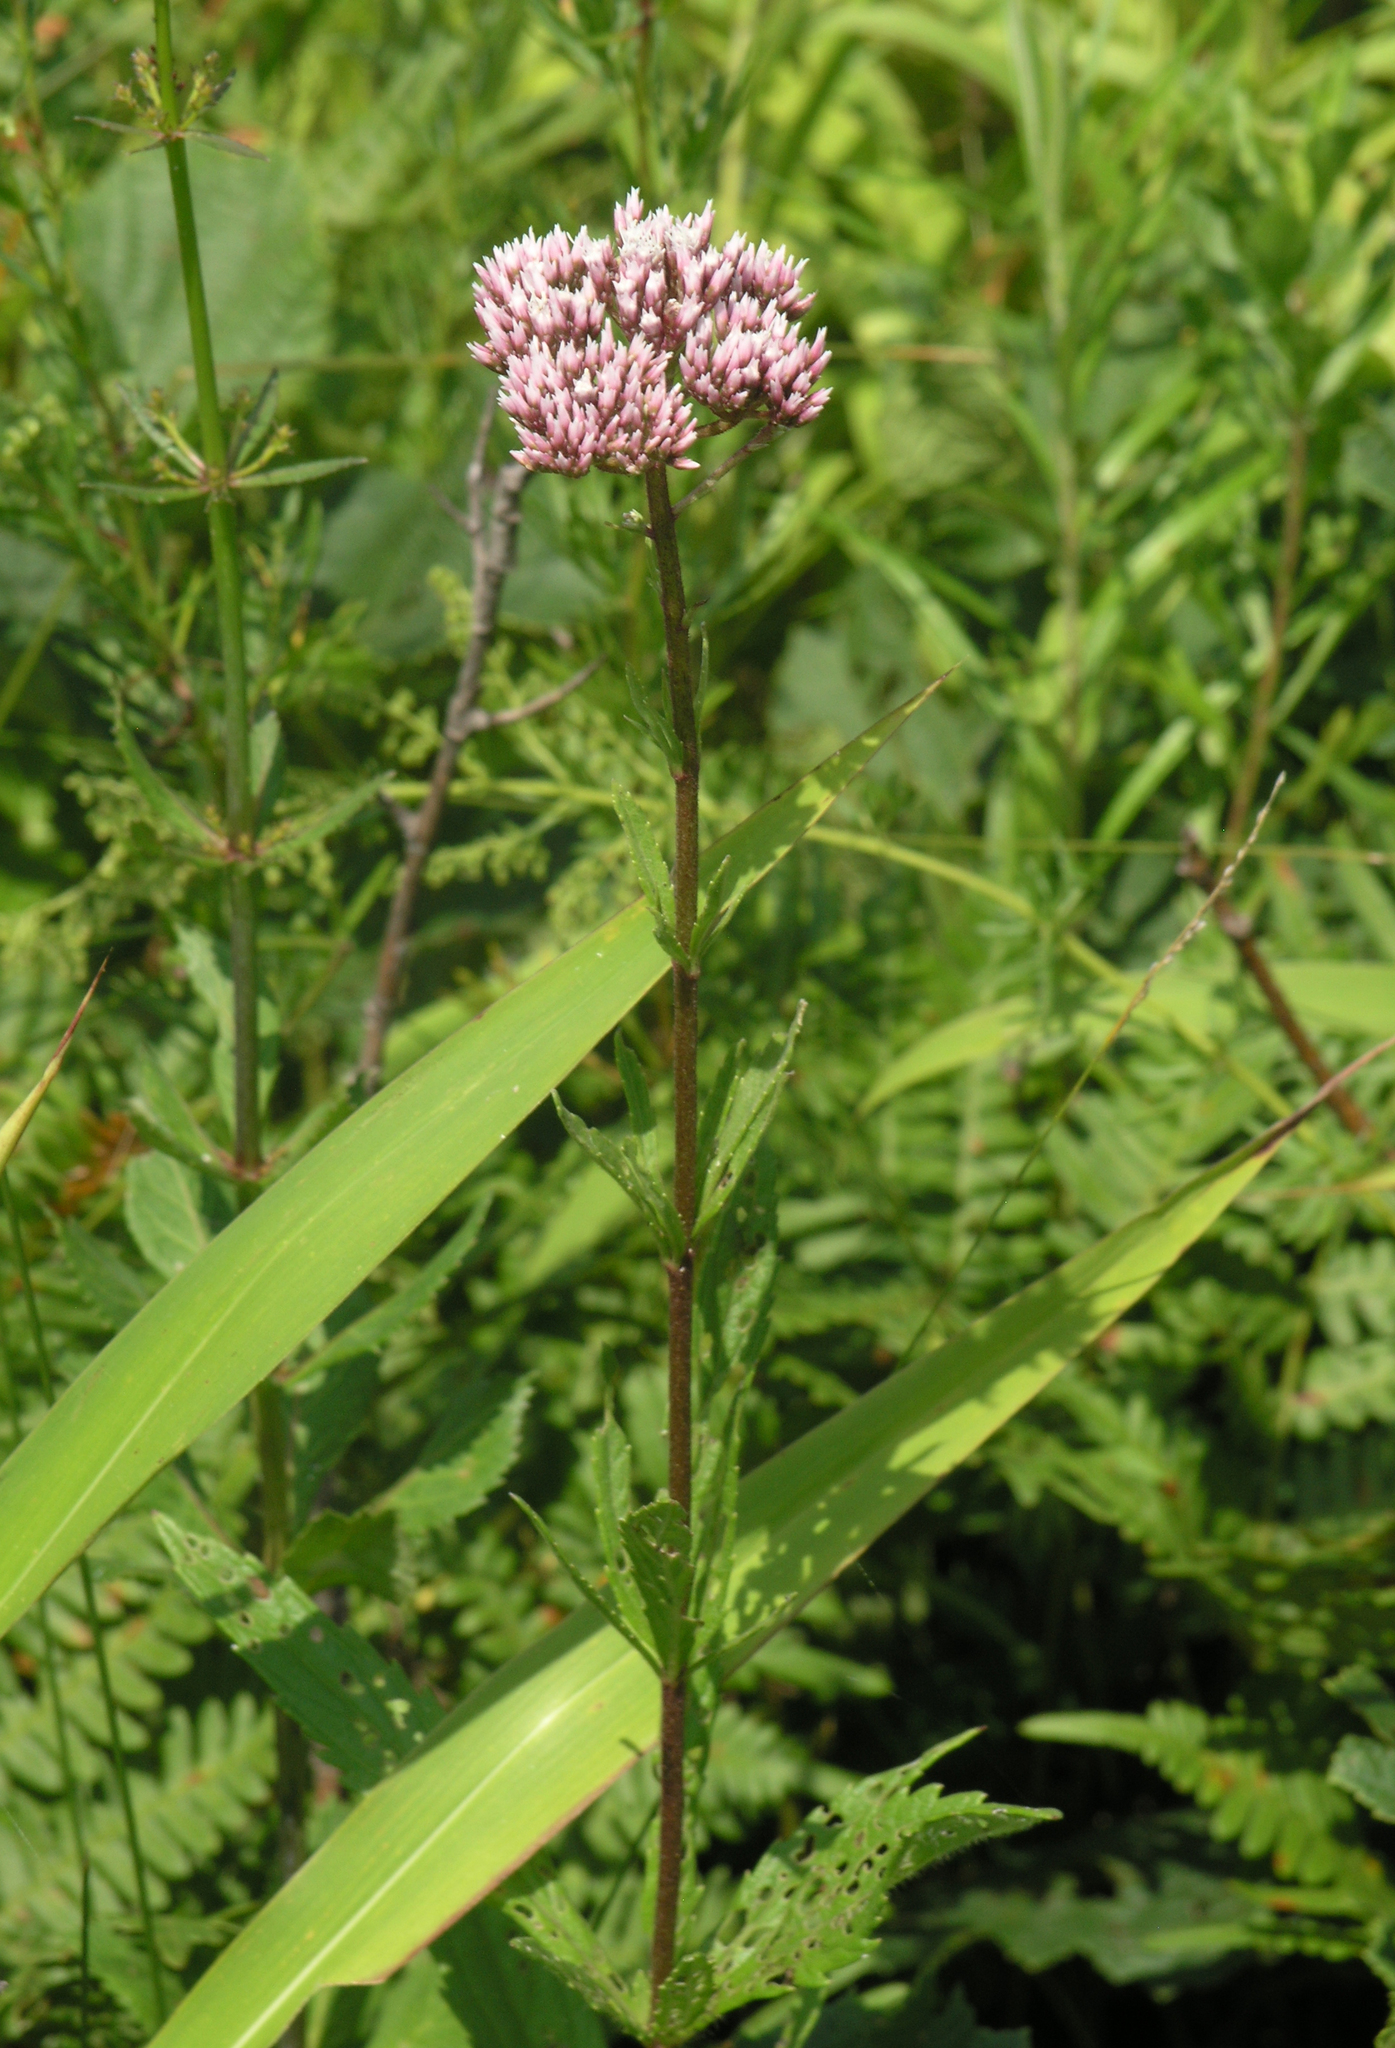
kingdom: Plantae
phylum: Tracheophyta
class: Magnoliopsida
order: Asterales
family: Asteraceae
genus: Eupatorium
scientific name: Eupatorium lindleyanum
